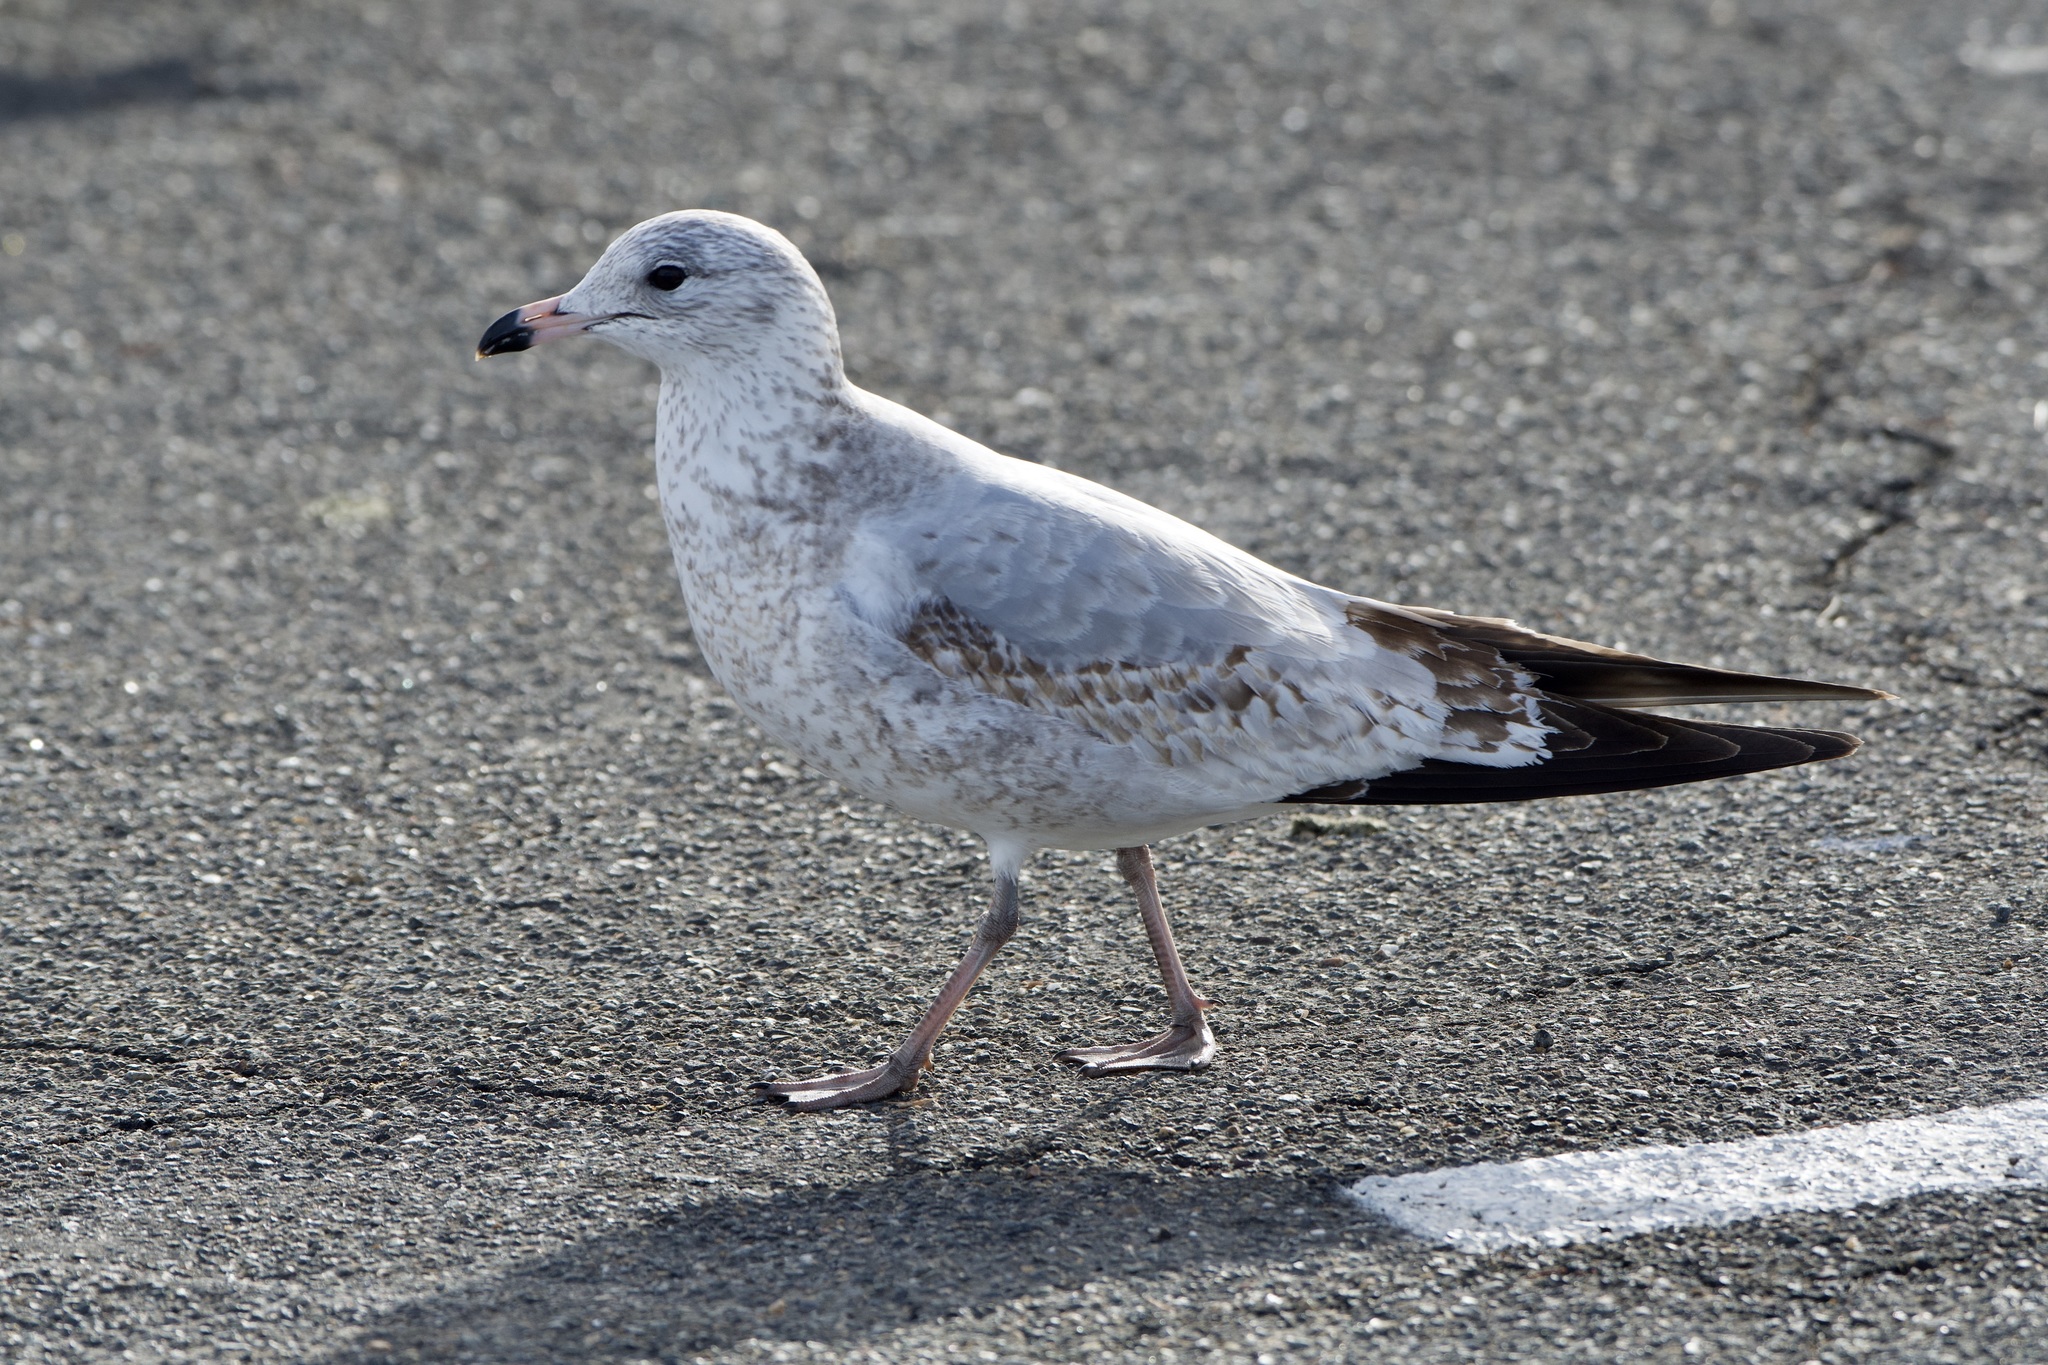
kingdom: Animalia
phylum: Chordata
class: Aves
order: Charadriiformes
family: Laridae
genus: Larus
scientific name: Larus delawarensis
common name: Ring-billed gull
